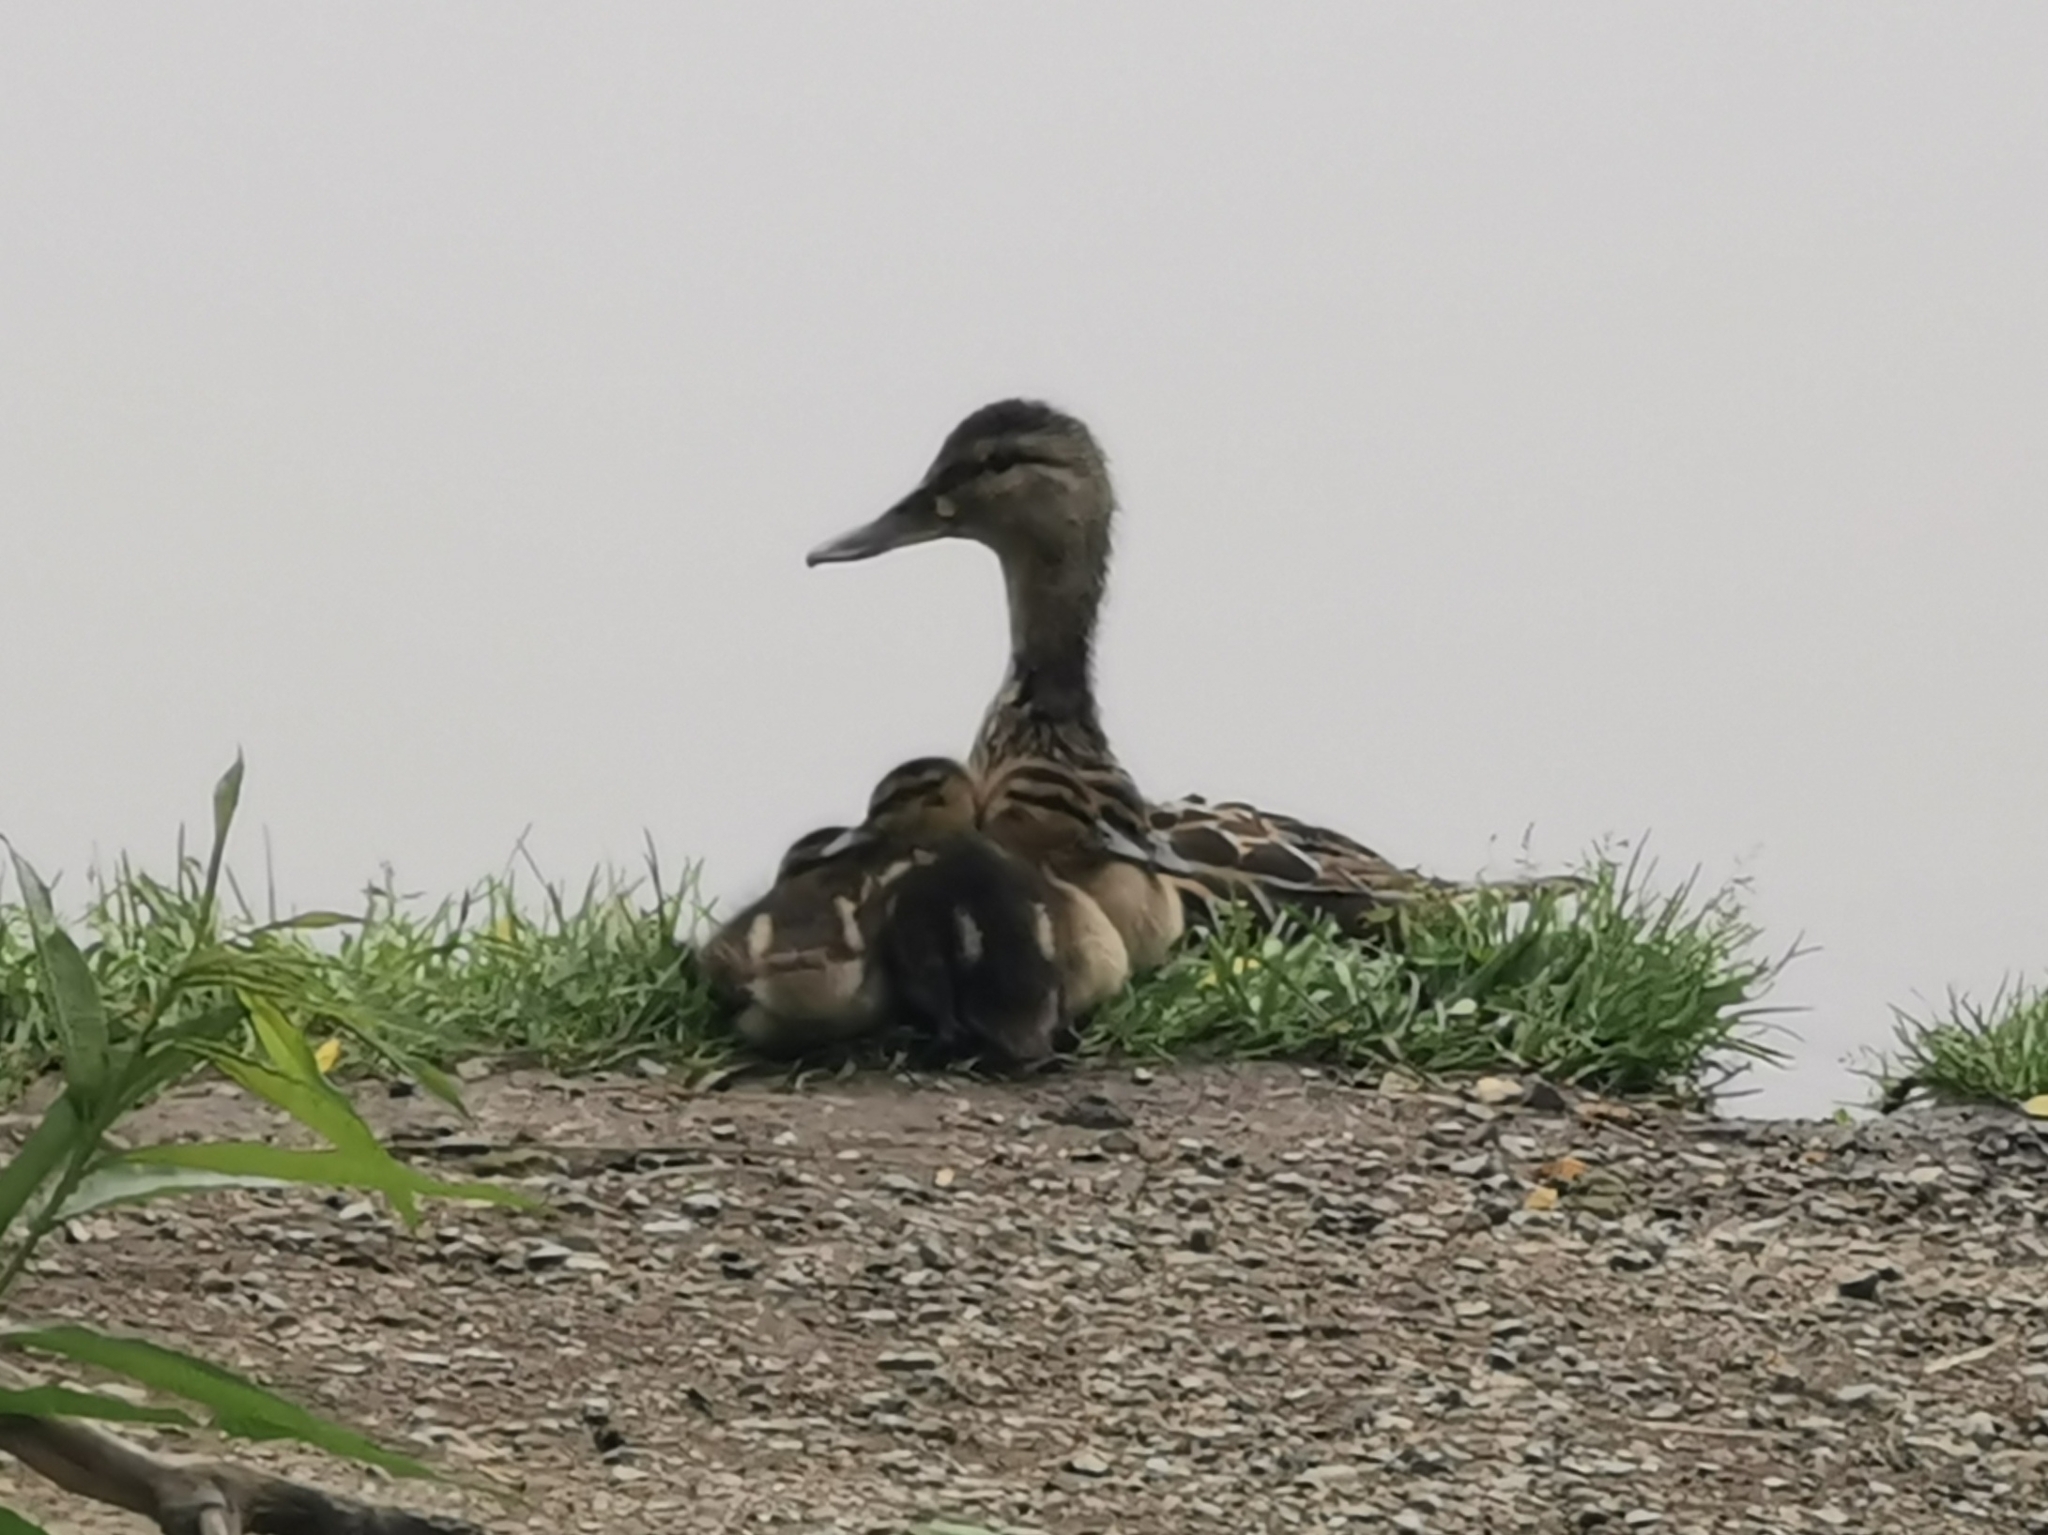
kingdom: Animalia
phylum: Chordata
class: Aves
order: Anseriformes
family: Anatidae
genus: Anas
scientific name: Anas platyrhynchos
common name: Mallard
